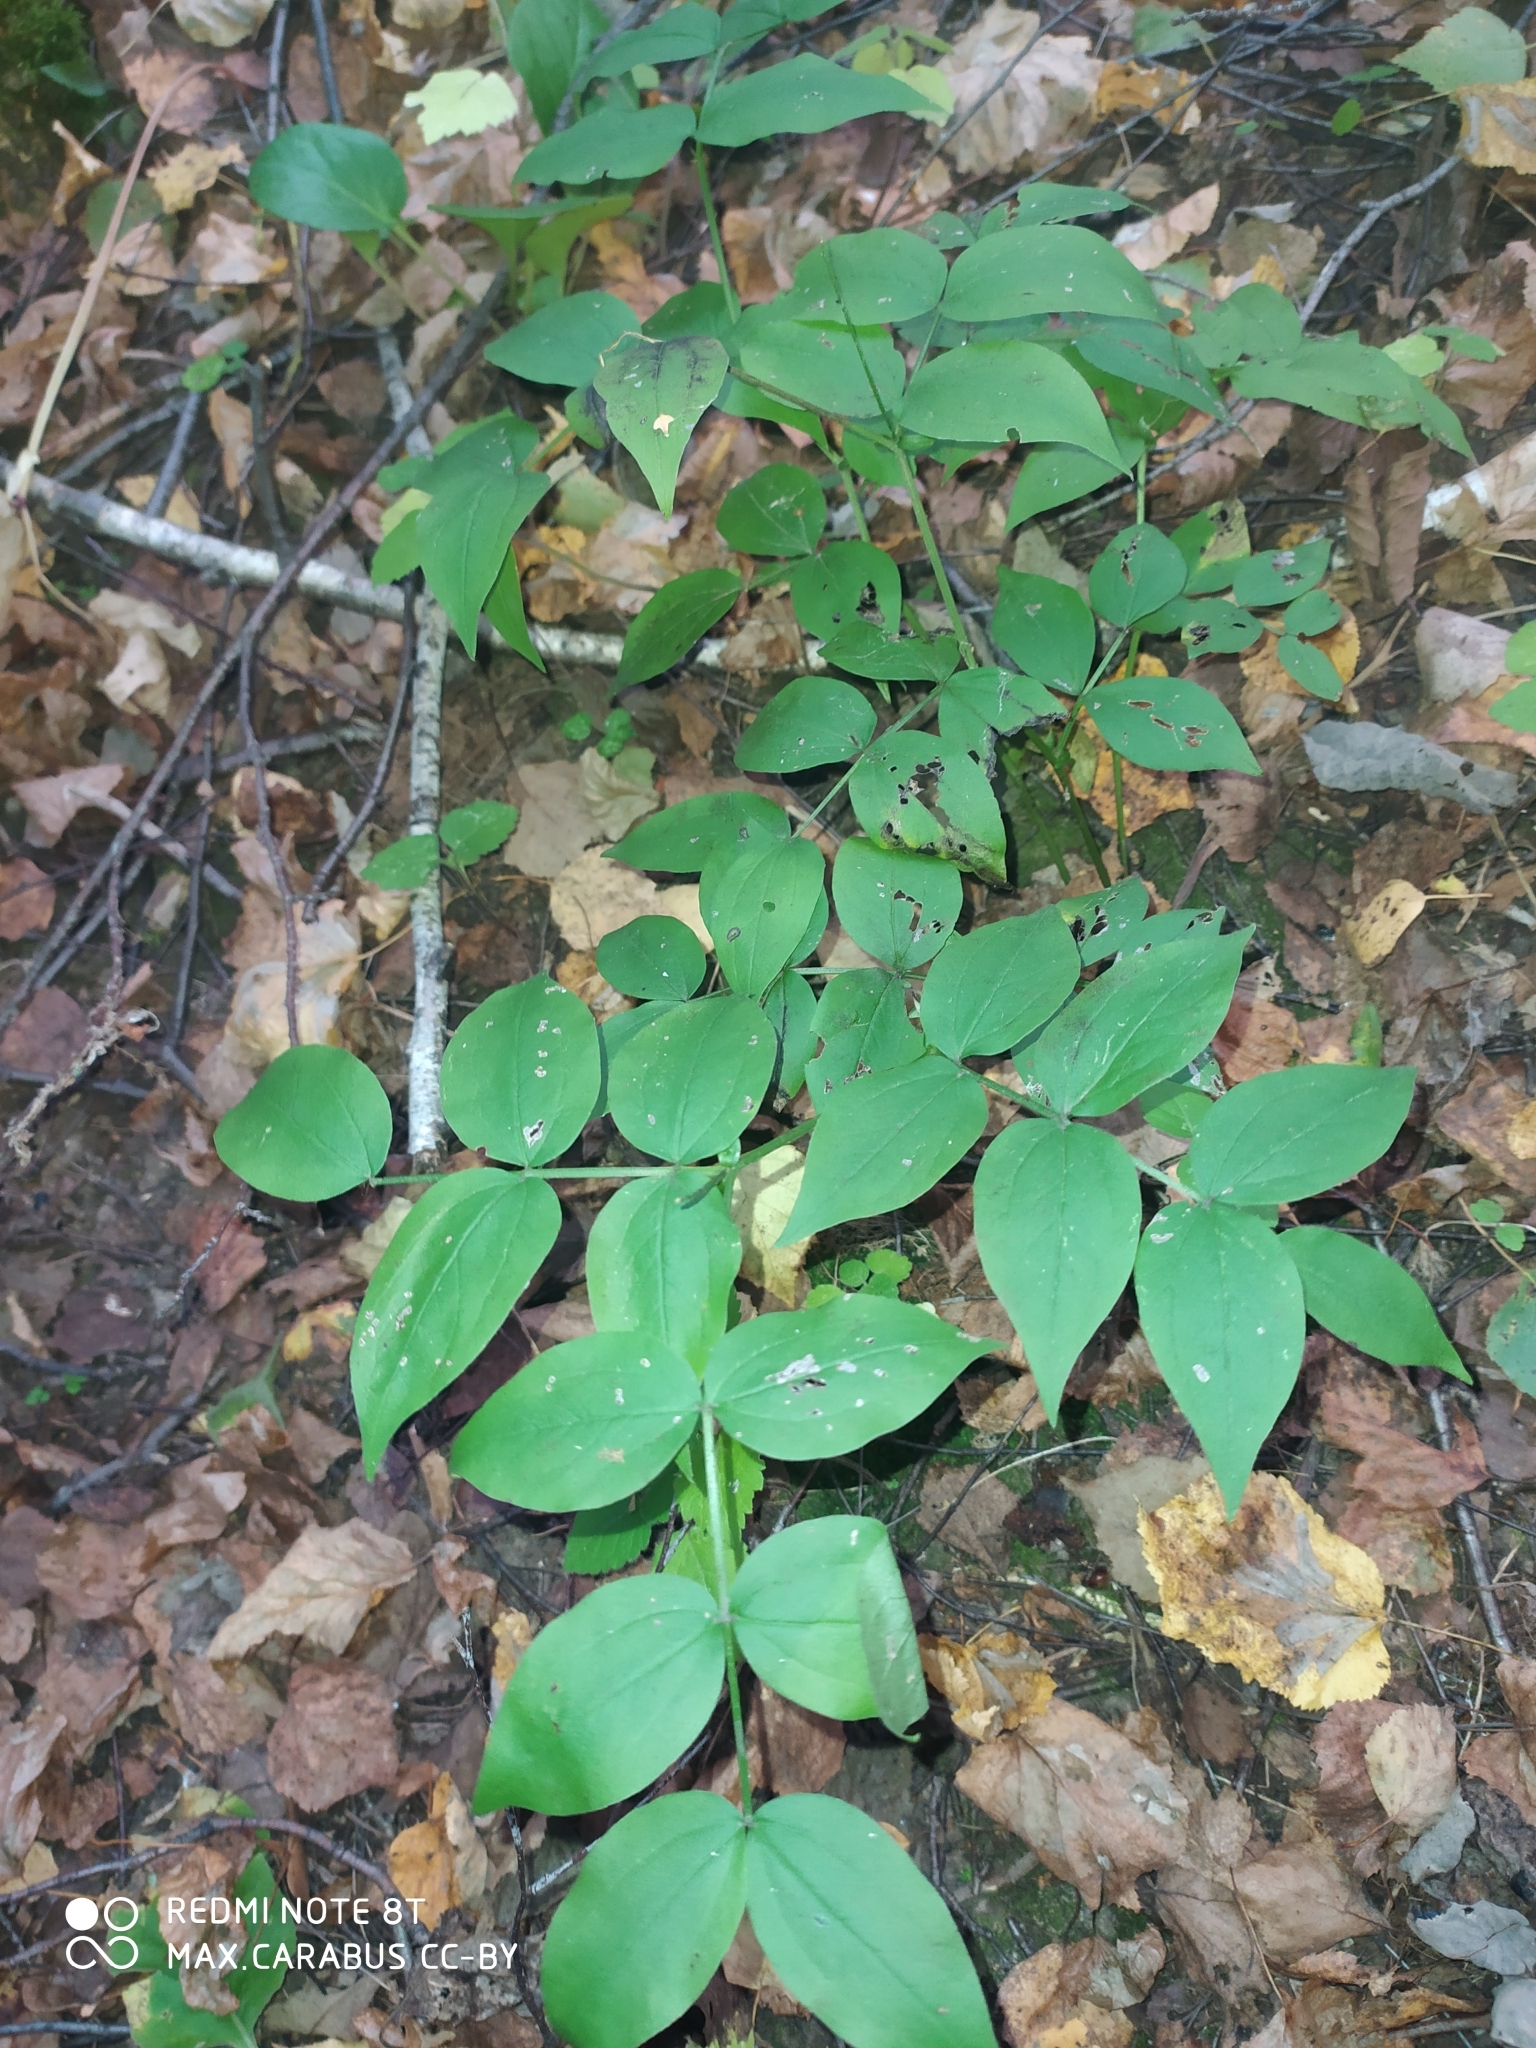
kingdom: Plantae
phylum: Tracheophyta
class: Magnoliopsida
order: Fabales
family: Fabaceae
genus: Lathyrus
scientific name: Lathyrus vernus
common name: Spring pea
